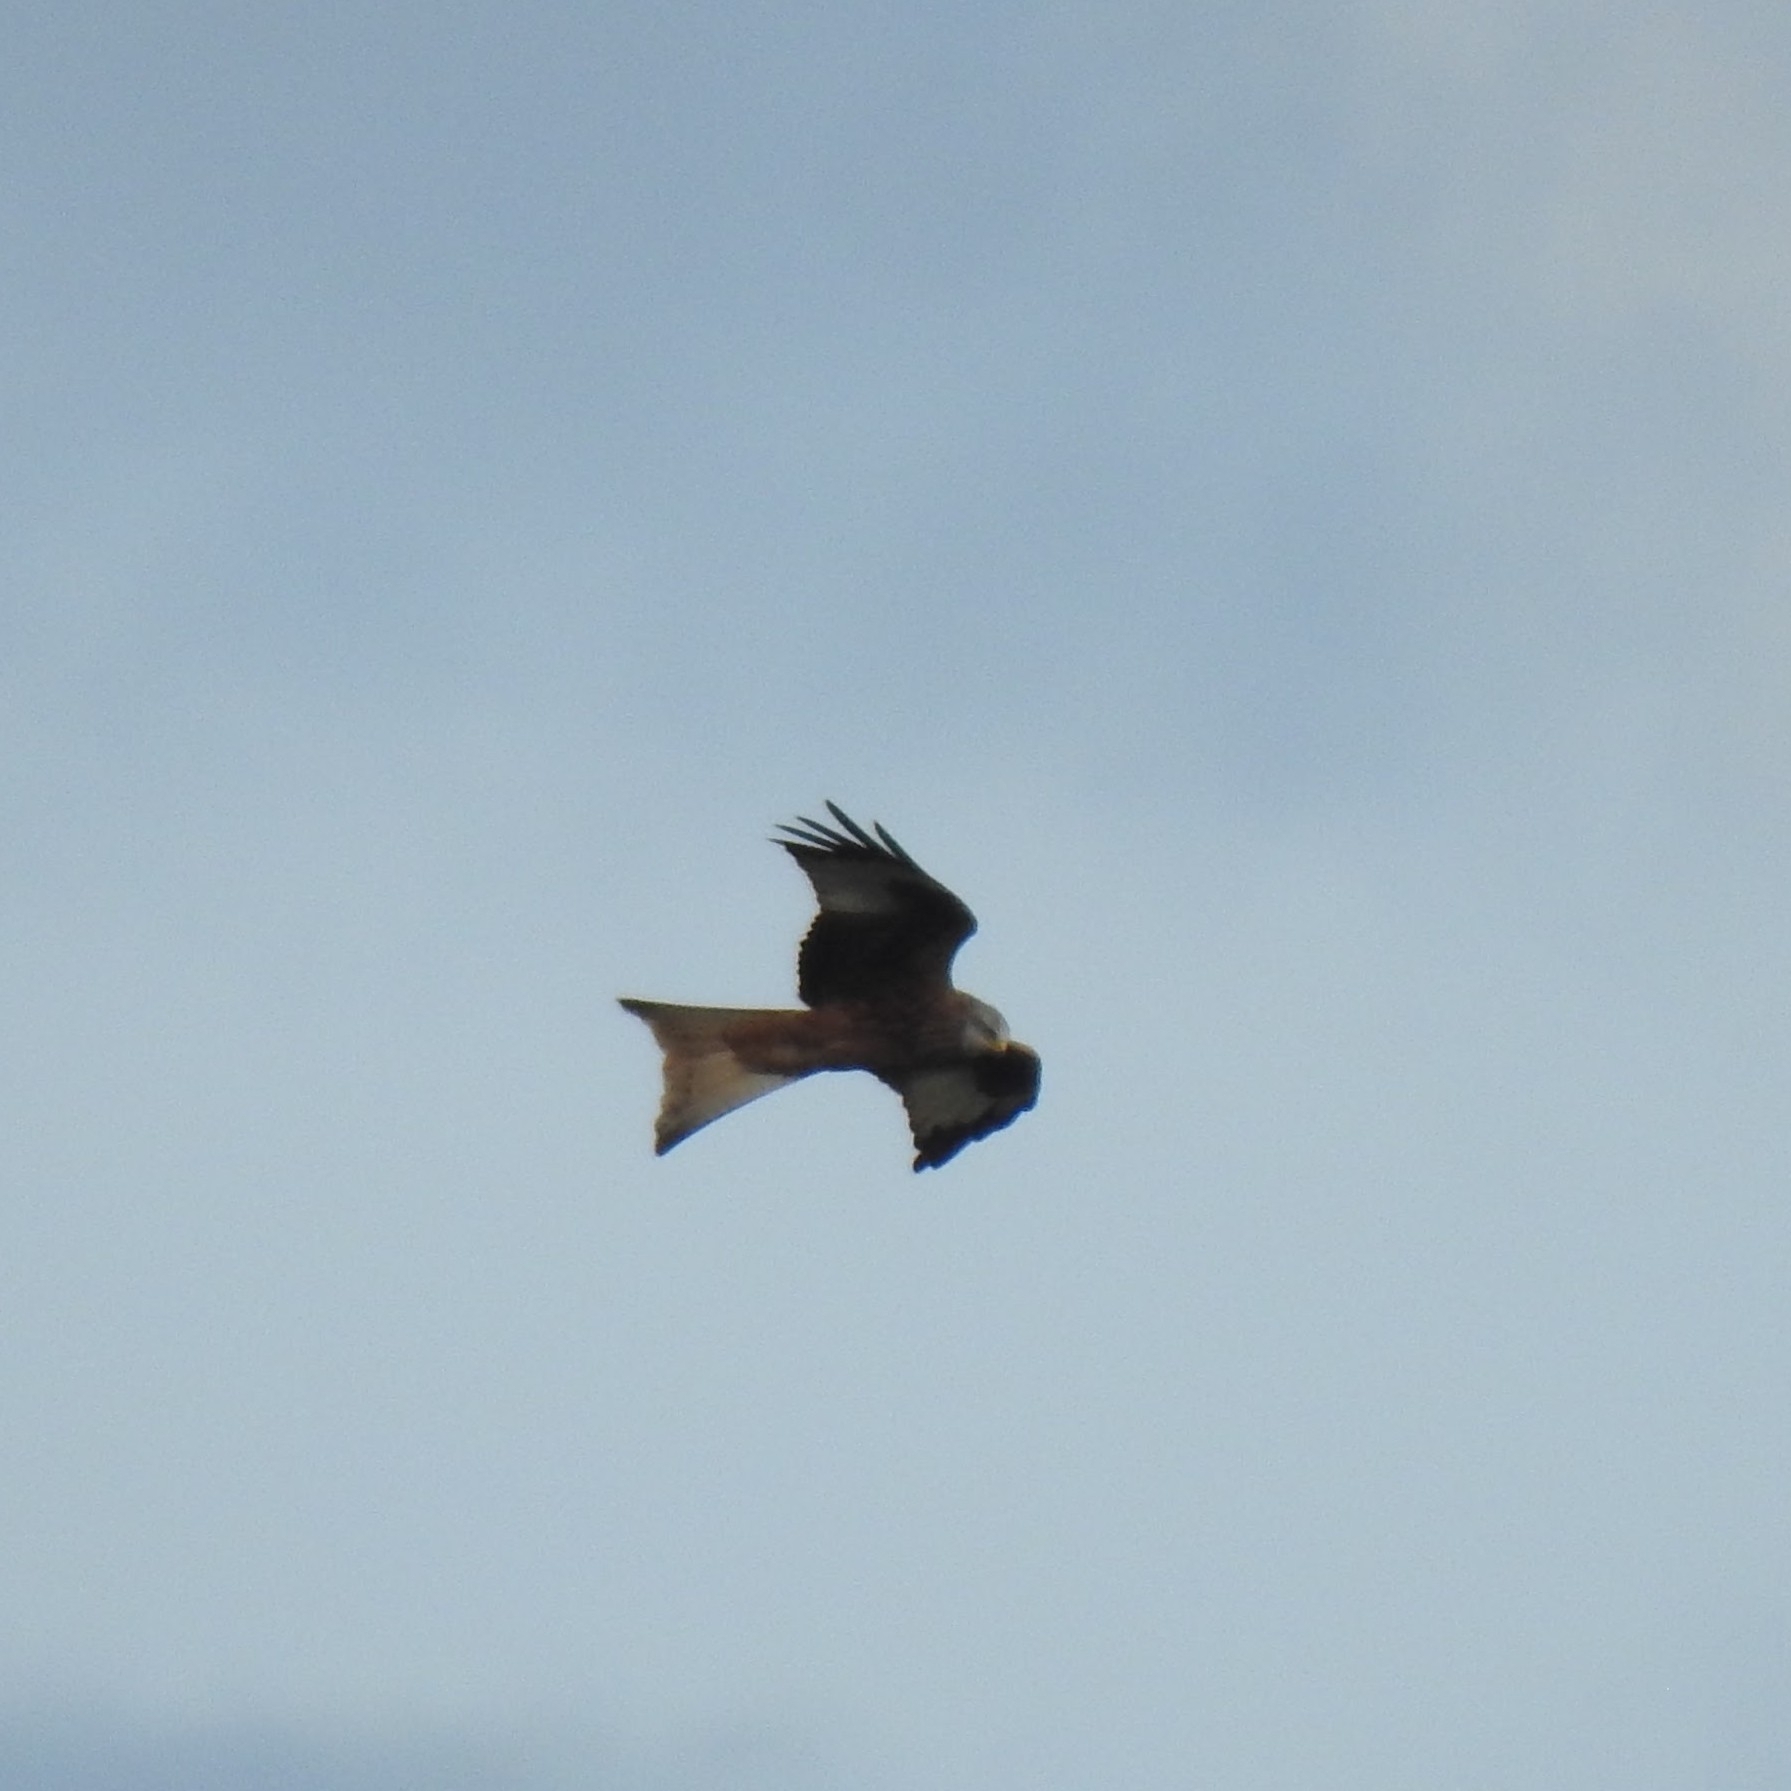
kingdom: Animalia
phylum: Chordata
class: Aves
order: Accipitriformes
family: Accipitridae
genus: Milvus
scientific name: Milvus milvus
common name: Red kite
